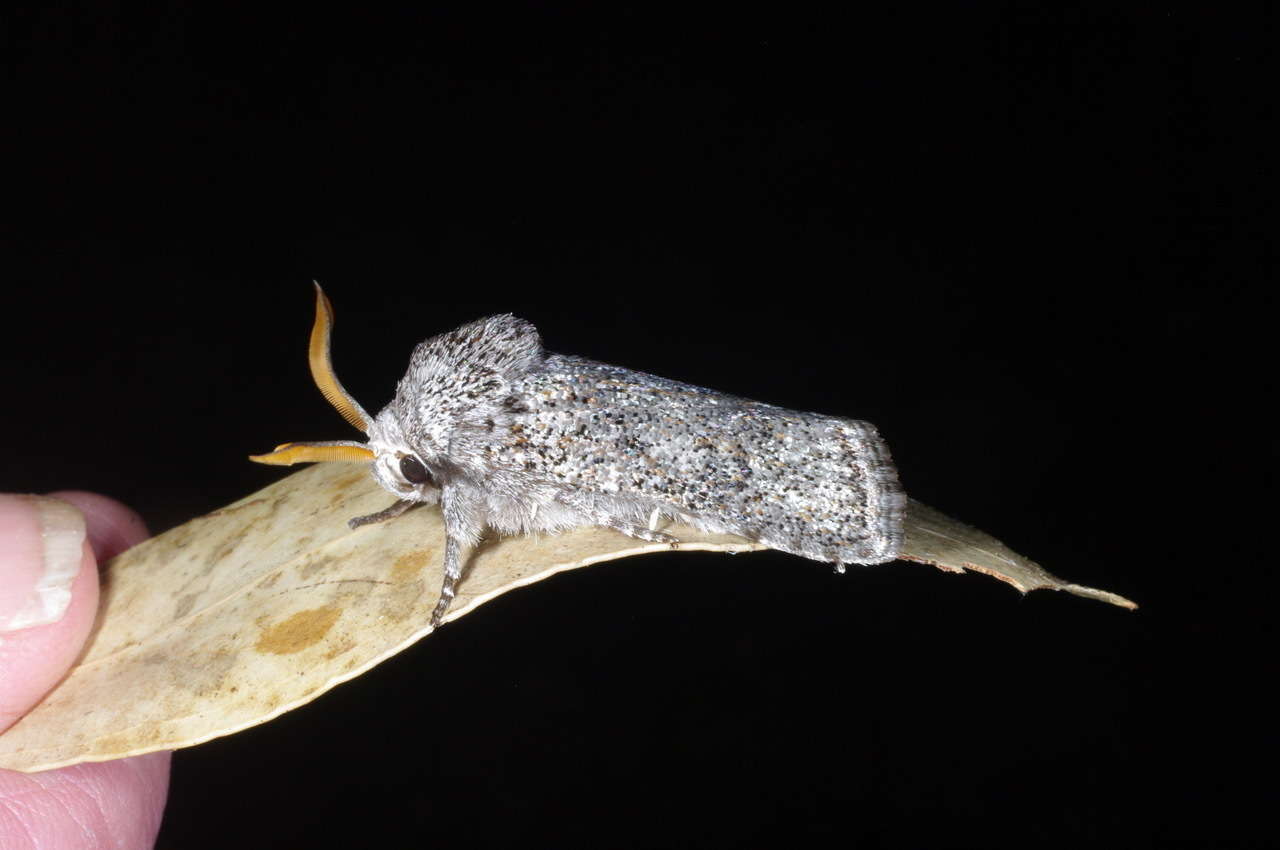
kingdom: Animalia
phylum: Arthropoda
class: Insecta
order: Lepidoptera
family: Xyloryctidae
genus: Cryptophasa
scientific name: Cryptophasa irrorata
